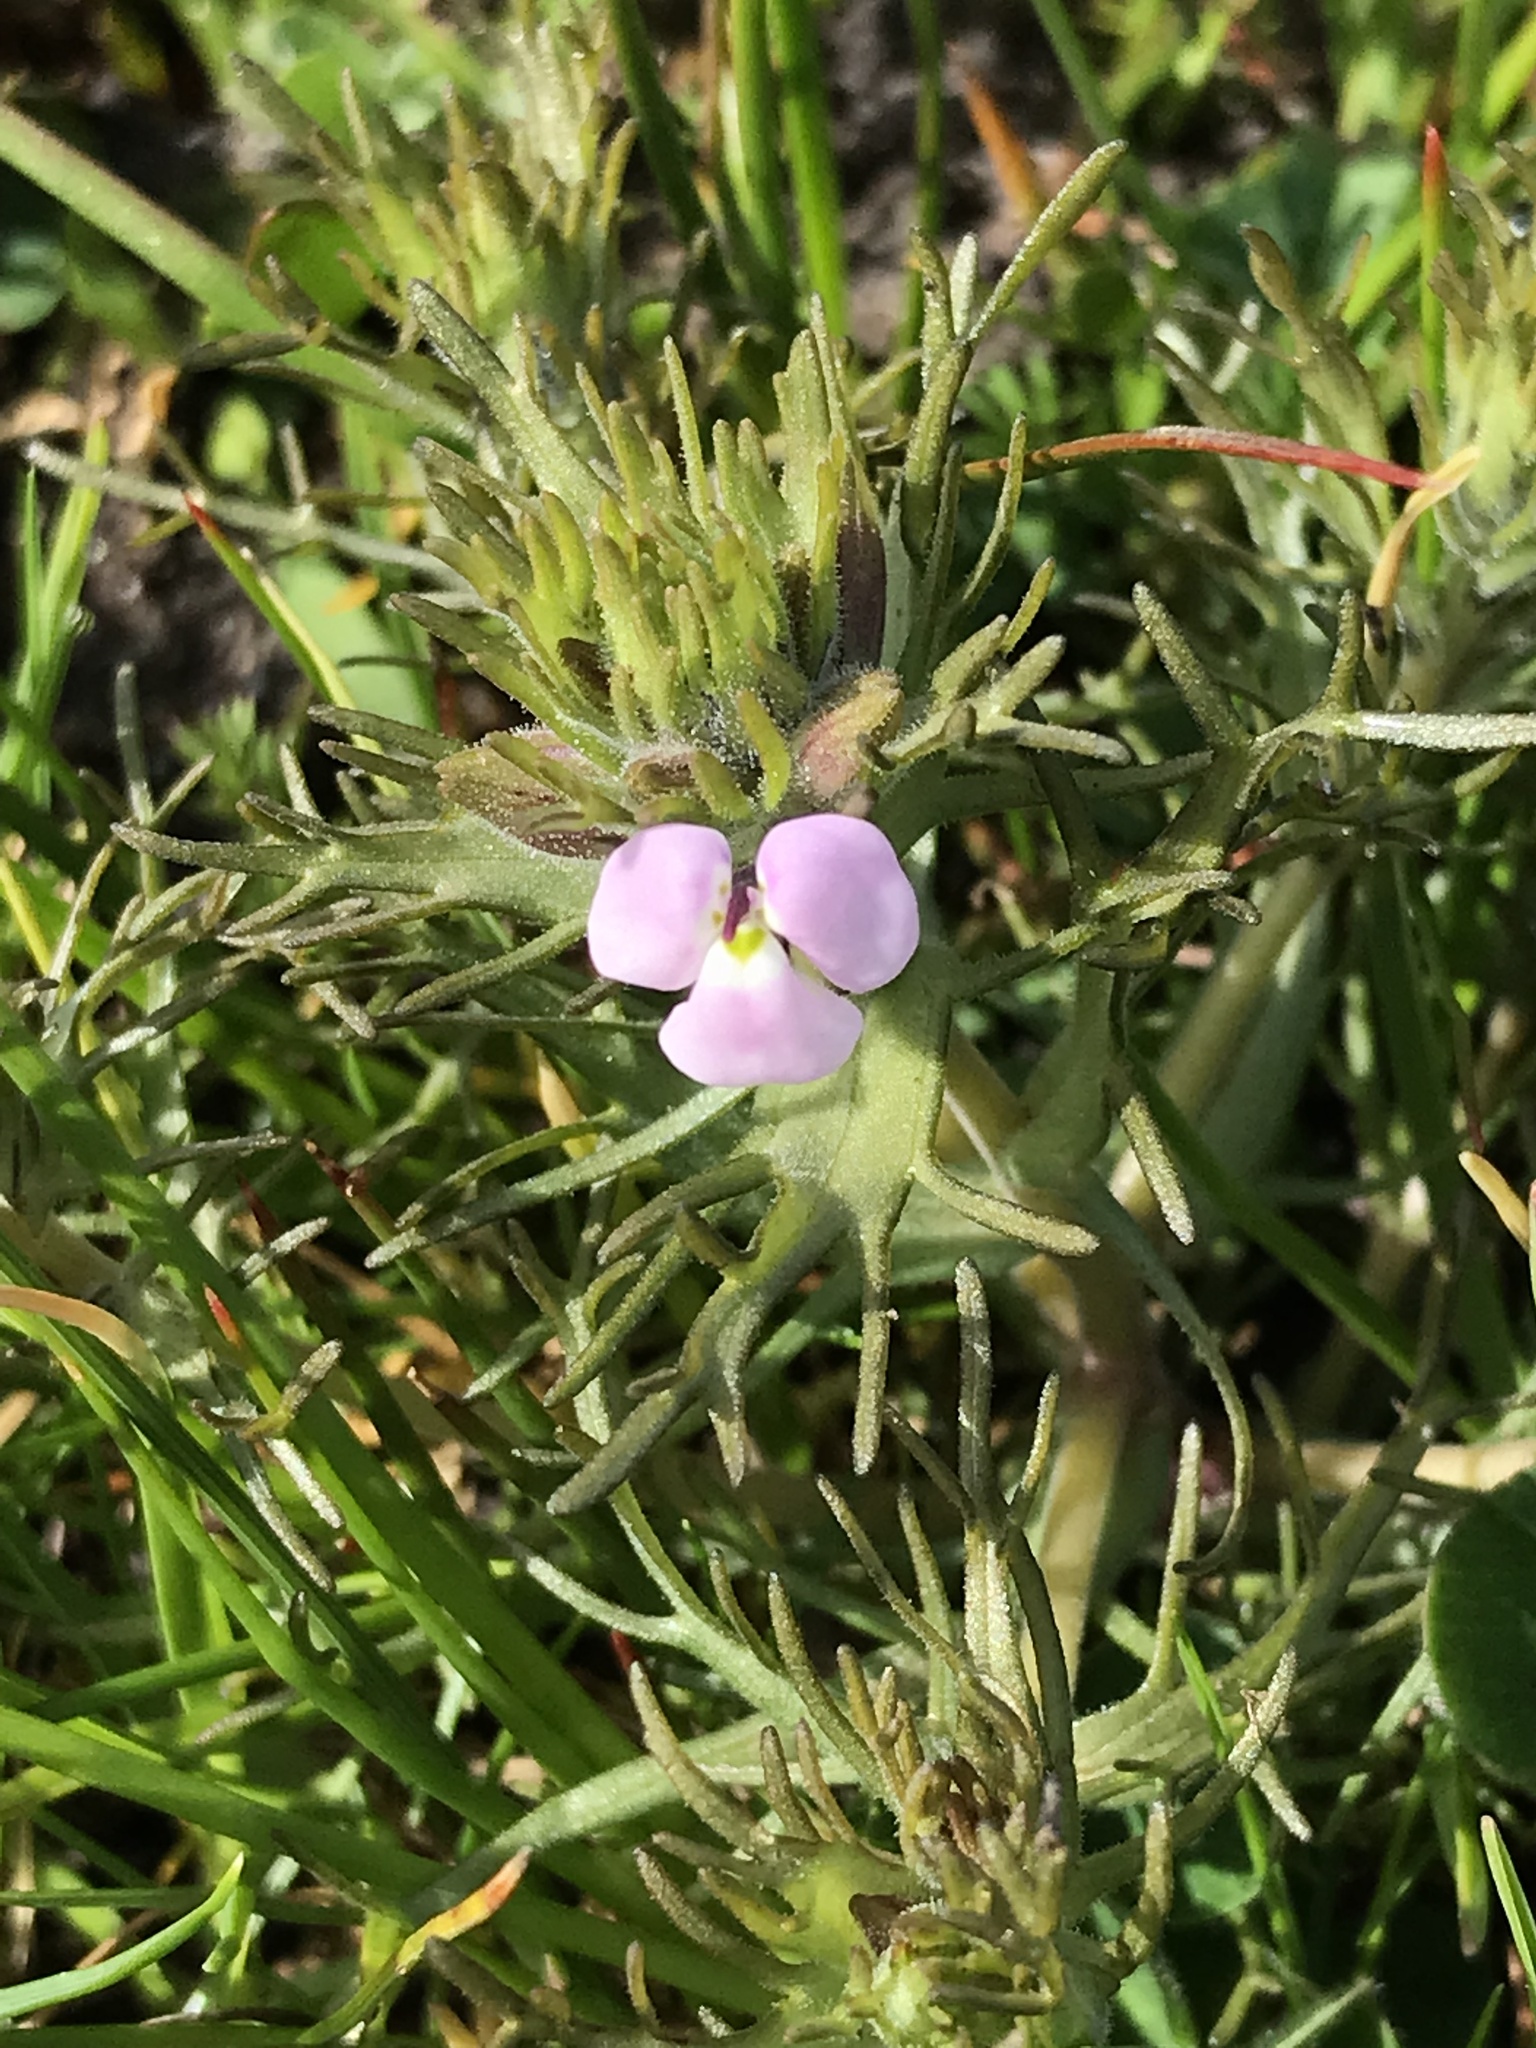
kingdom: Plantae
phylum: Tracheophyta
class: Magnoliopsida
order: Lamiales
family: Orobanchaceae
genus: Triphysaria
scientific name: Triphysaria eriantha
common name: Johnny-tuck
